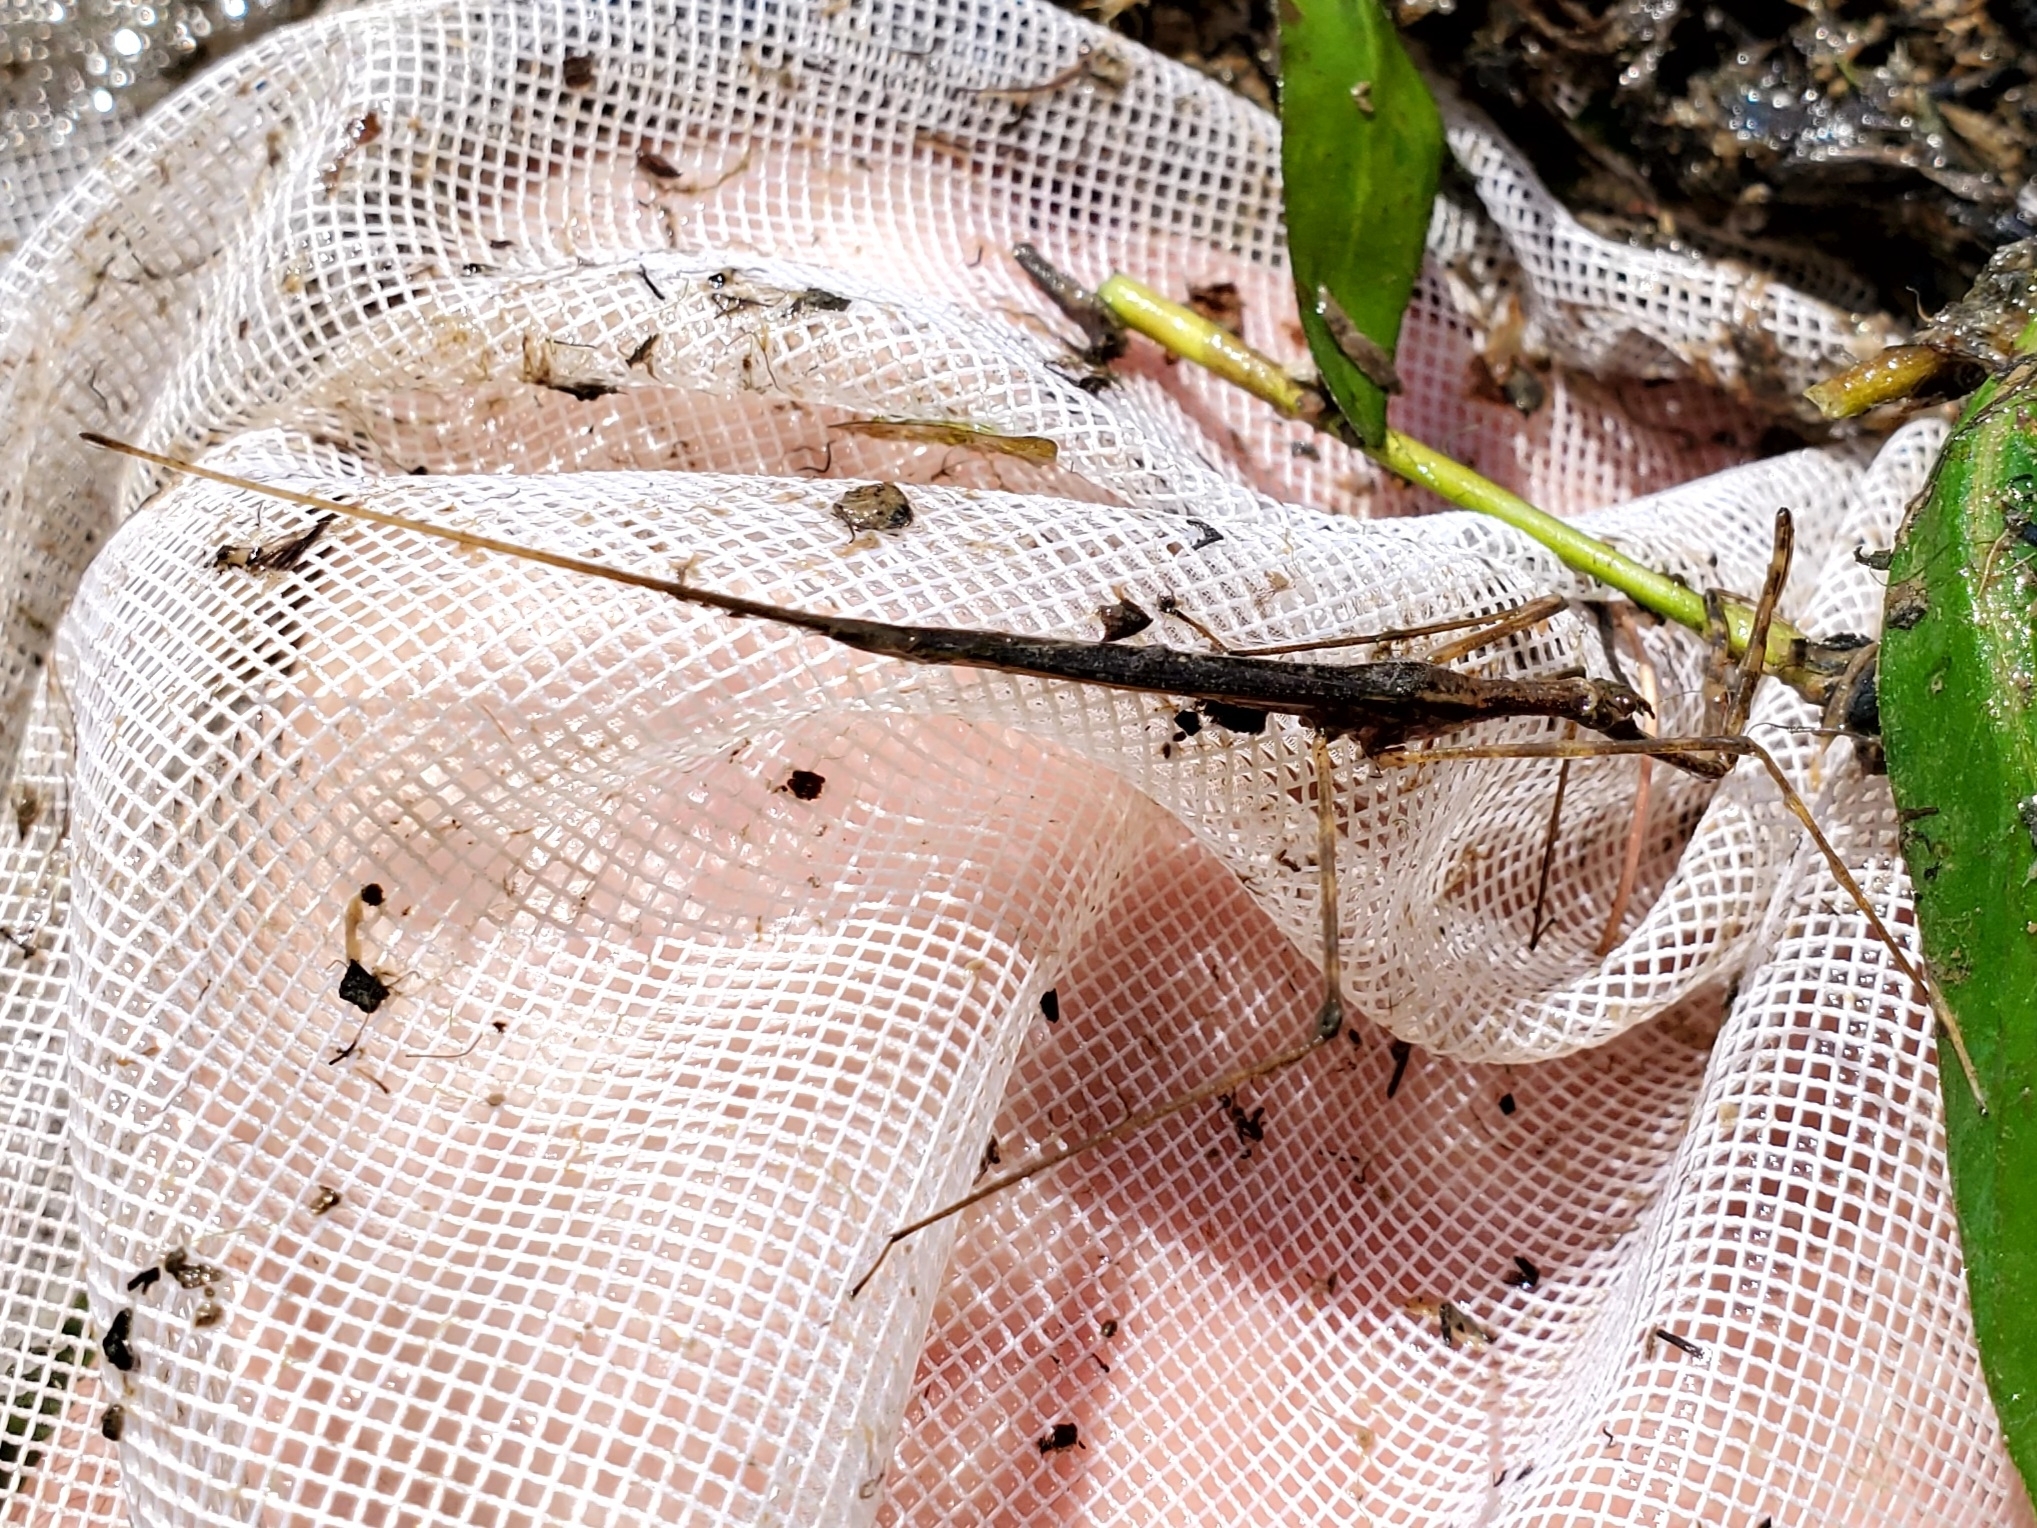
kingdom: Animalia
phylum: Arthropoda
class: Insecta
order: Hemiptera
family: Nepidae
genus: Ranatra
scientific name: Ranatra
